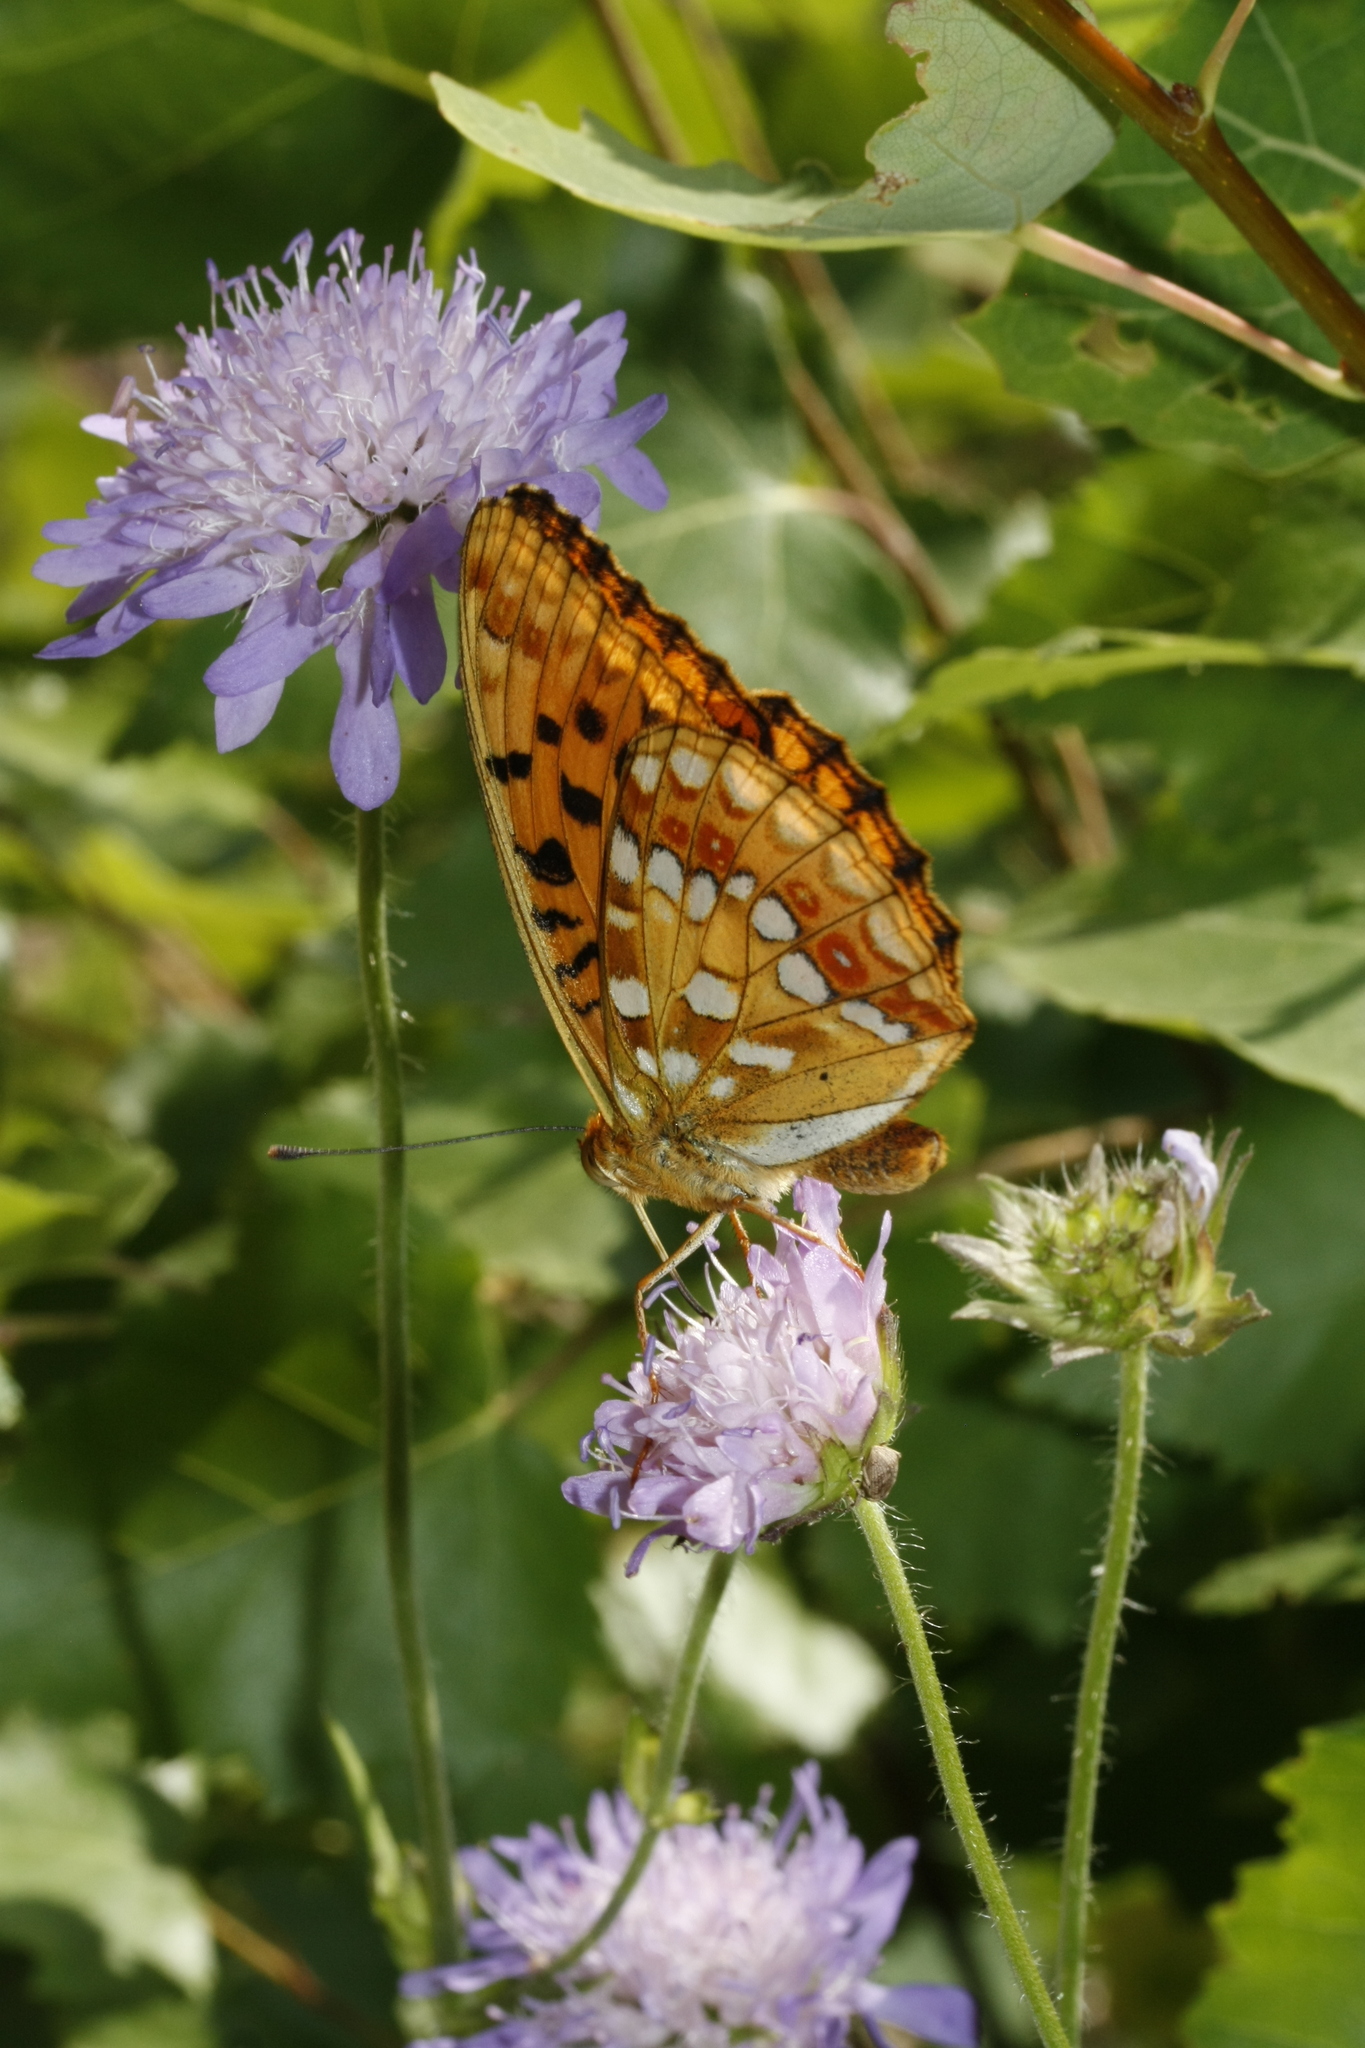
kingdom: Animalia
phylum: Arthropoda
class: Insecta
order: Lepidoptera
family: Nymphalidae
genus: Fabriciana
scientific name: Fabriciana adippe
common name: High brown fritillary
